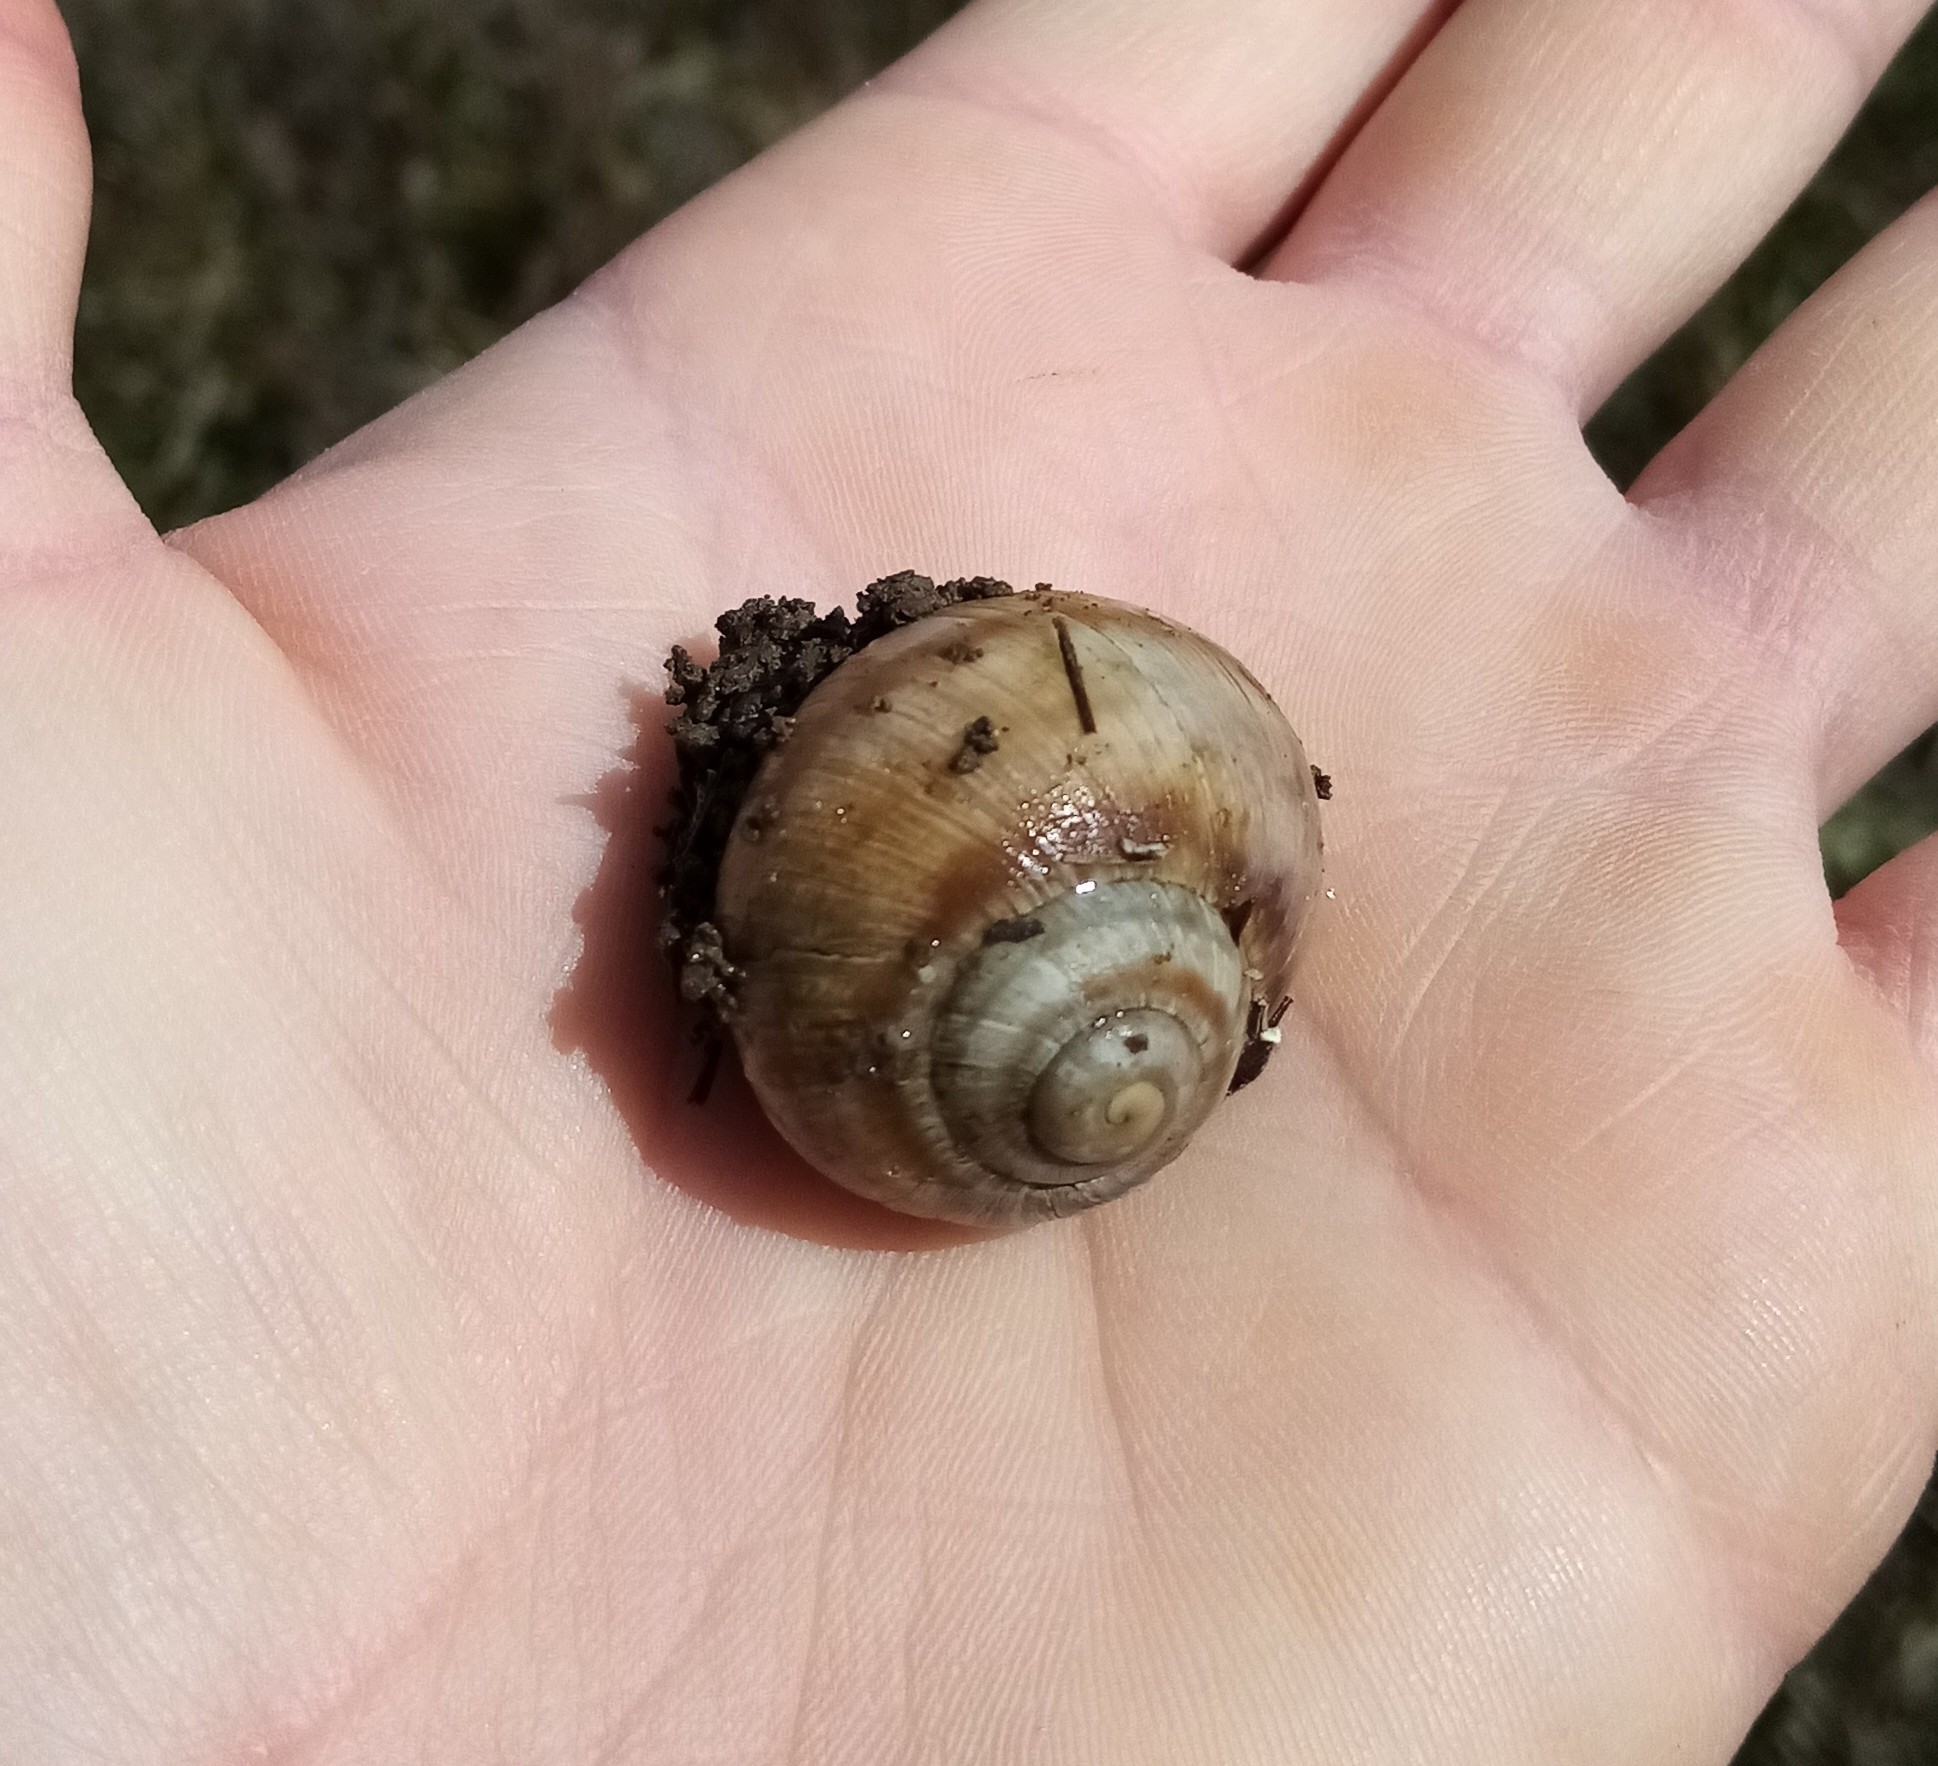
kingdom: Animalia
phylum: Mollusca
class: Gastropoda
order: Stylommatophora
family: Helicidae
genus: Helix
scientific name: Helix albescens
